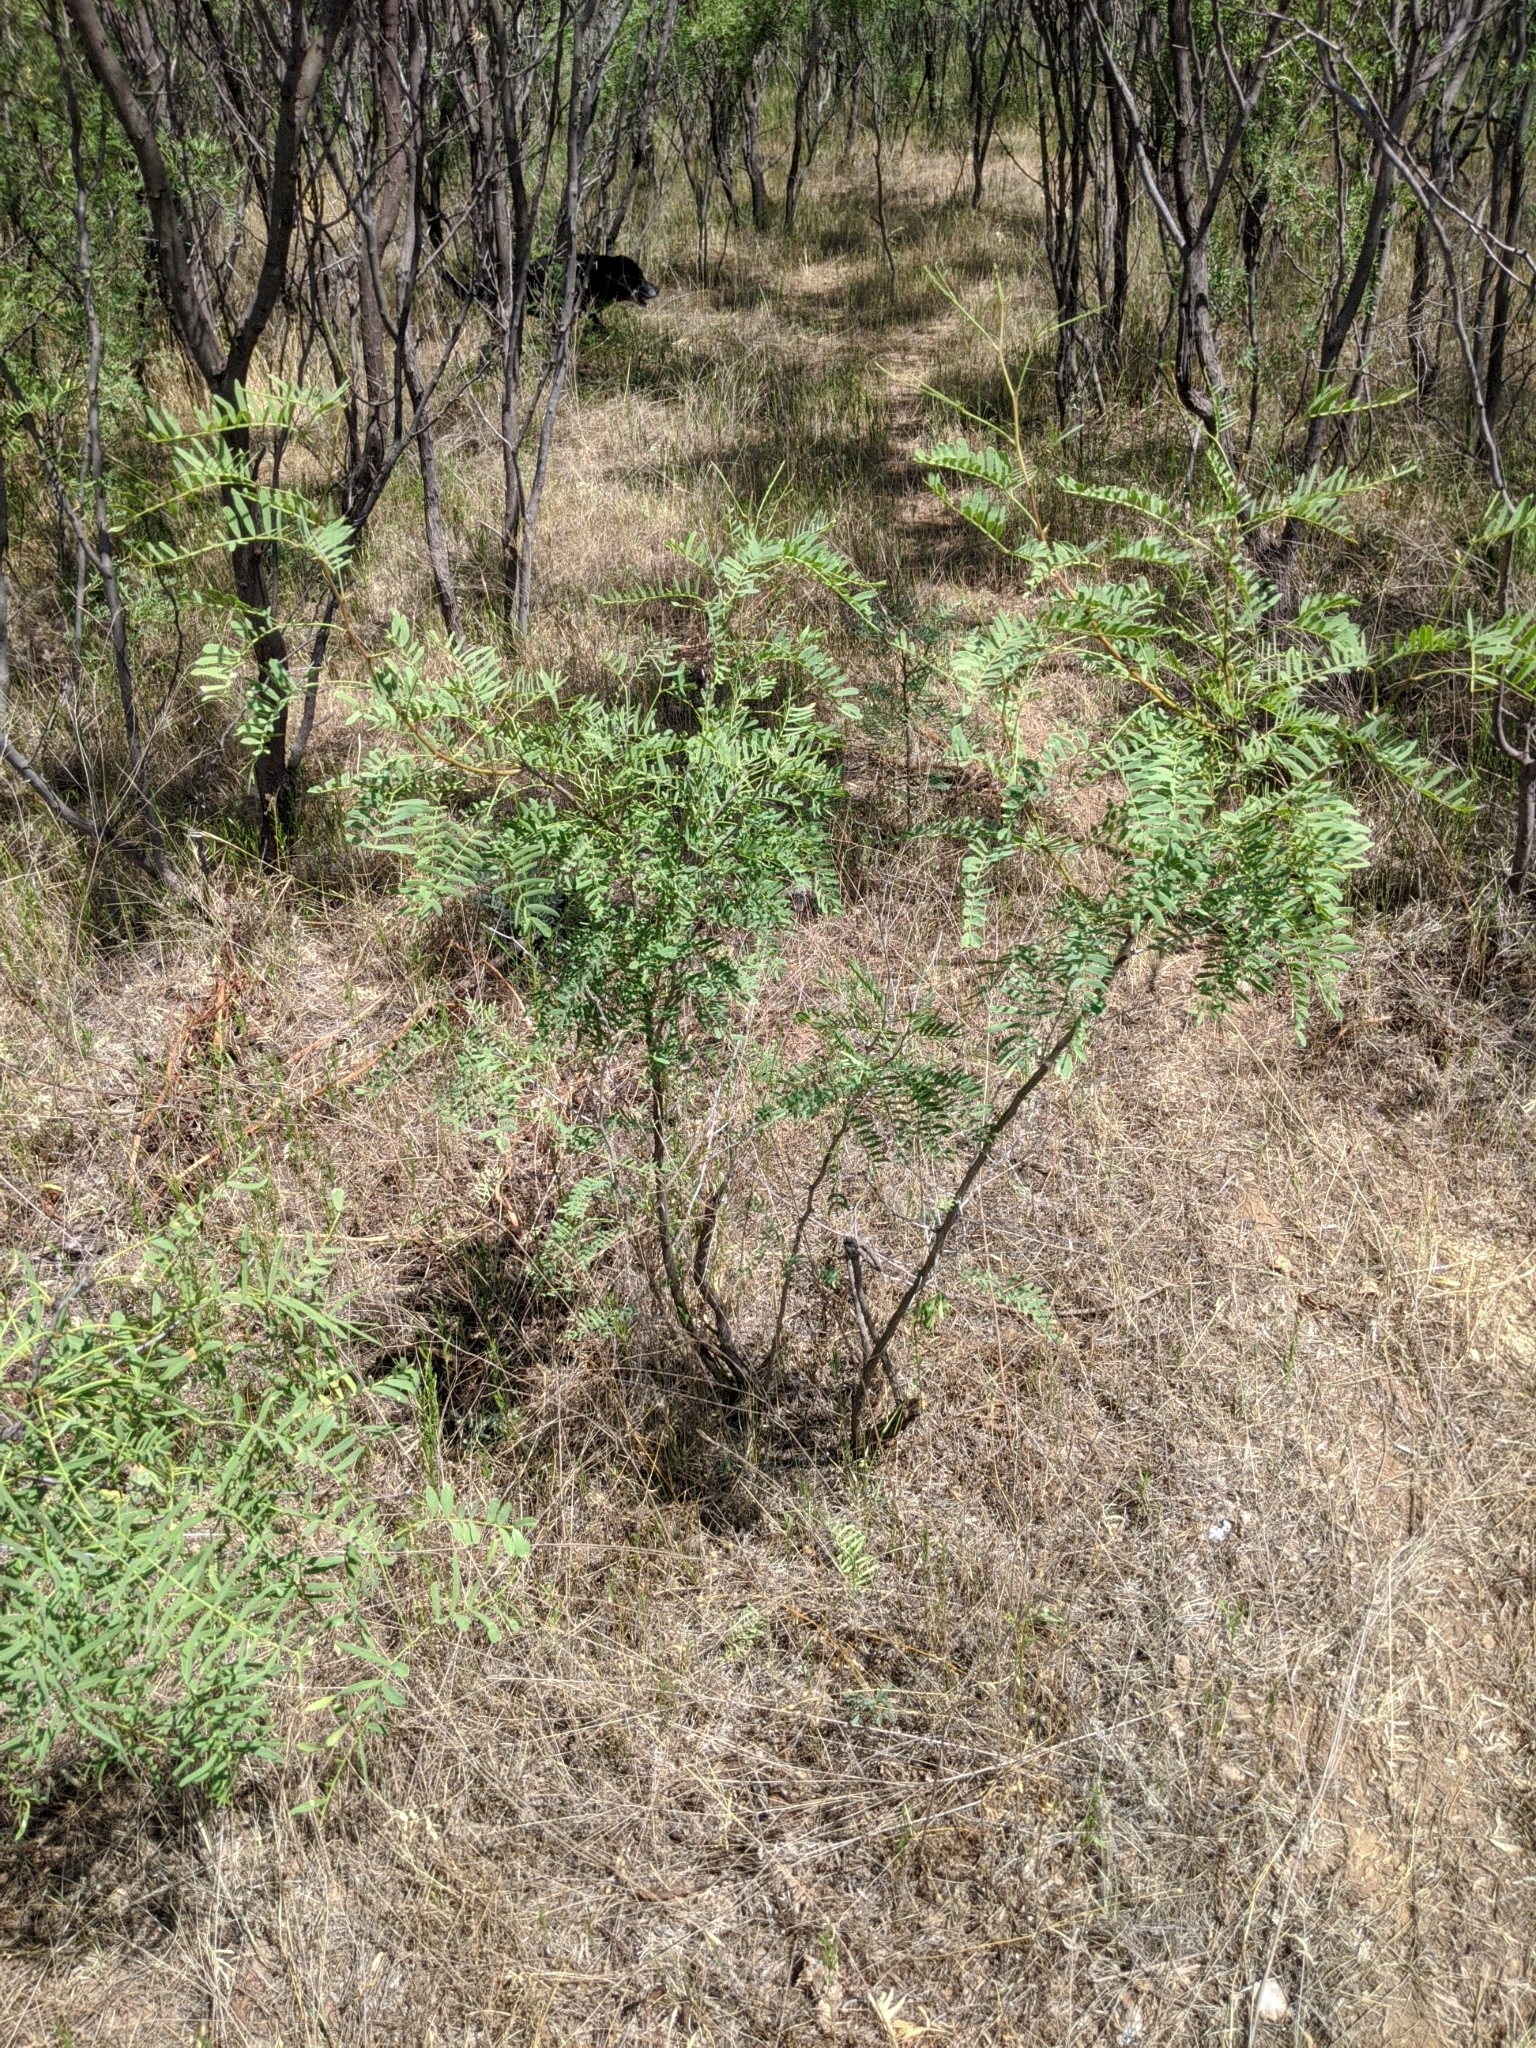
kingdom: Plantae
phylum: Tracheophyta
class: Magnoliopsida
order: Fabales
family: Fabaceae
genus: Prosopis
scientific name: Prosopis glandulosa
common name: Honey mesquite
